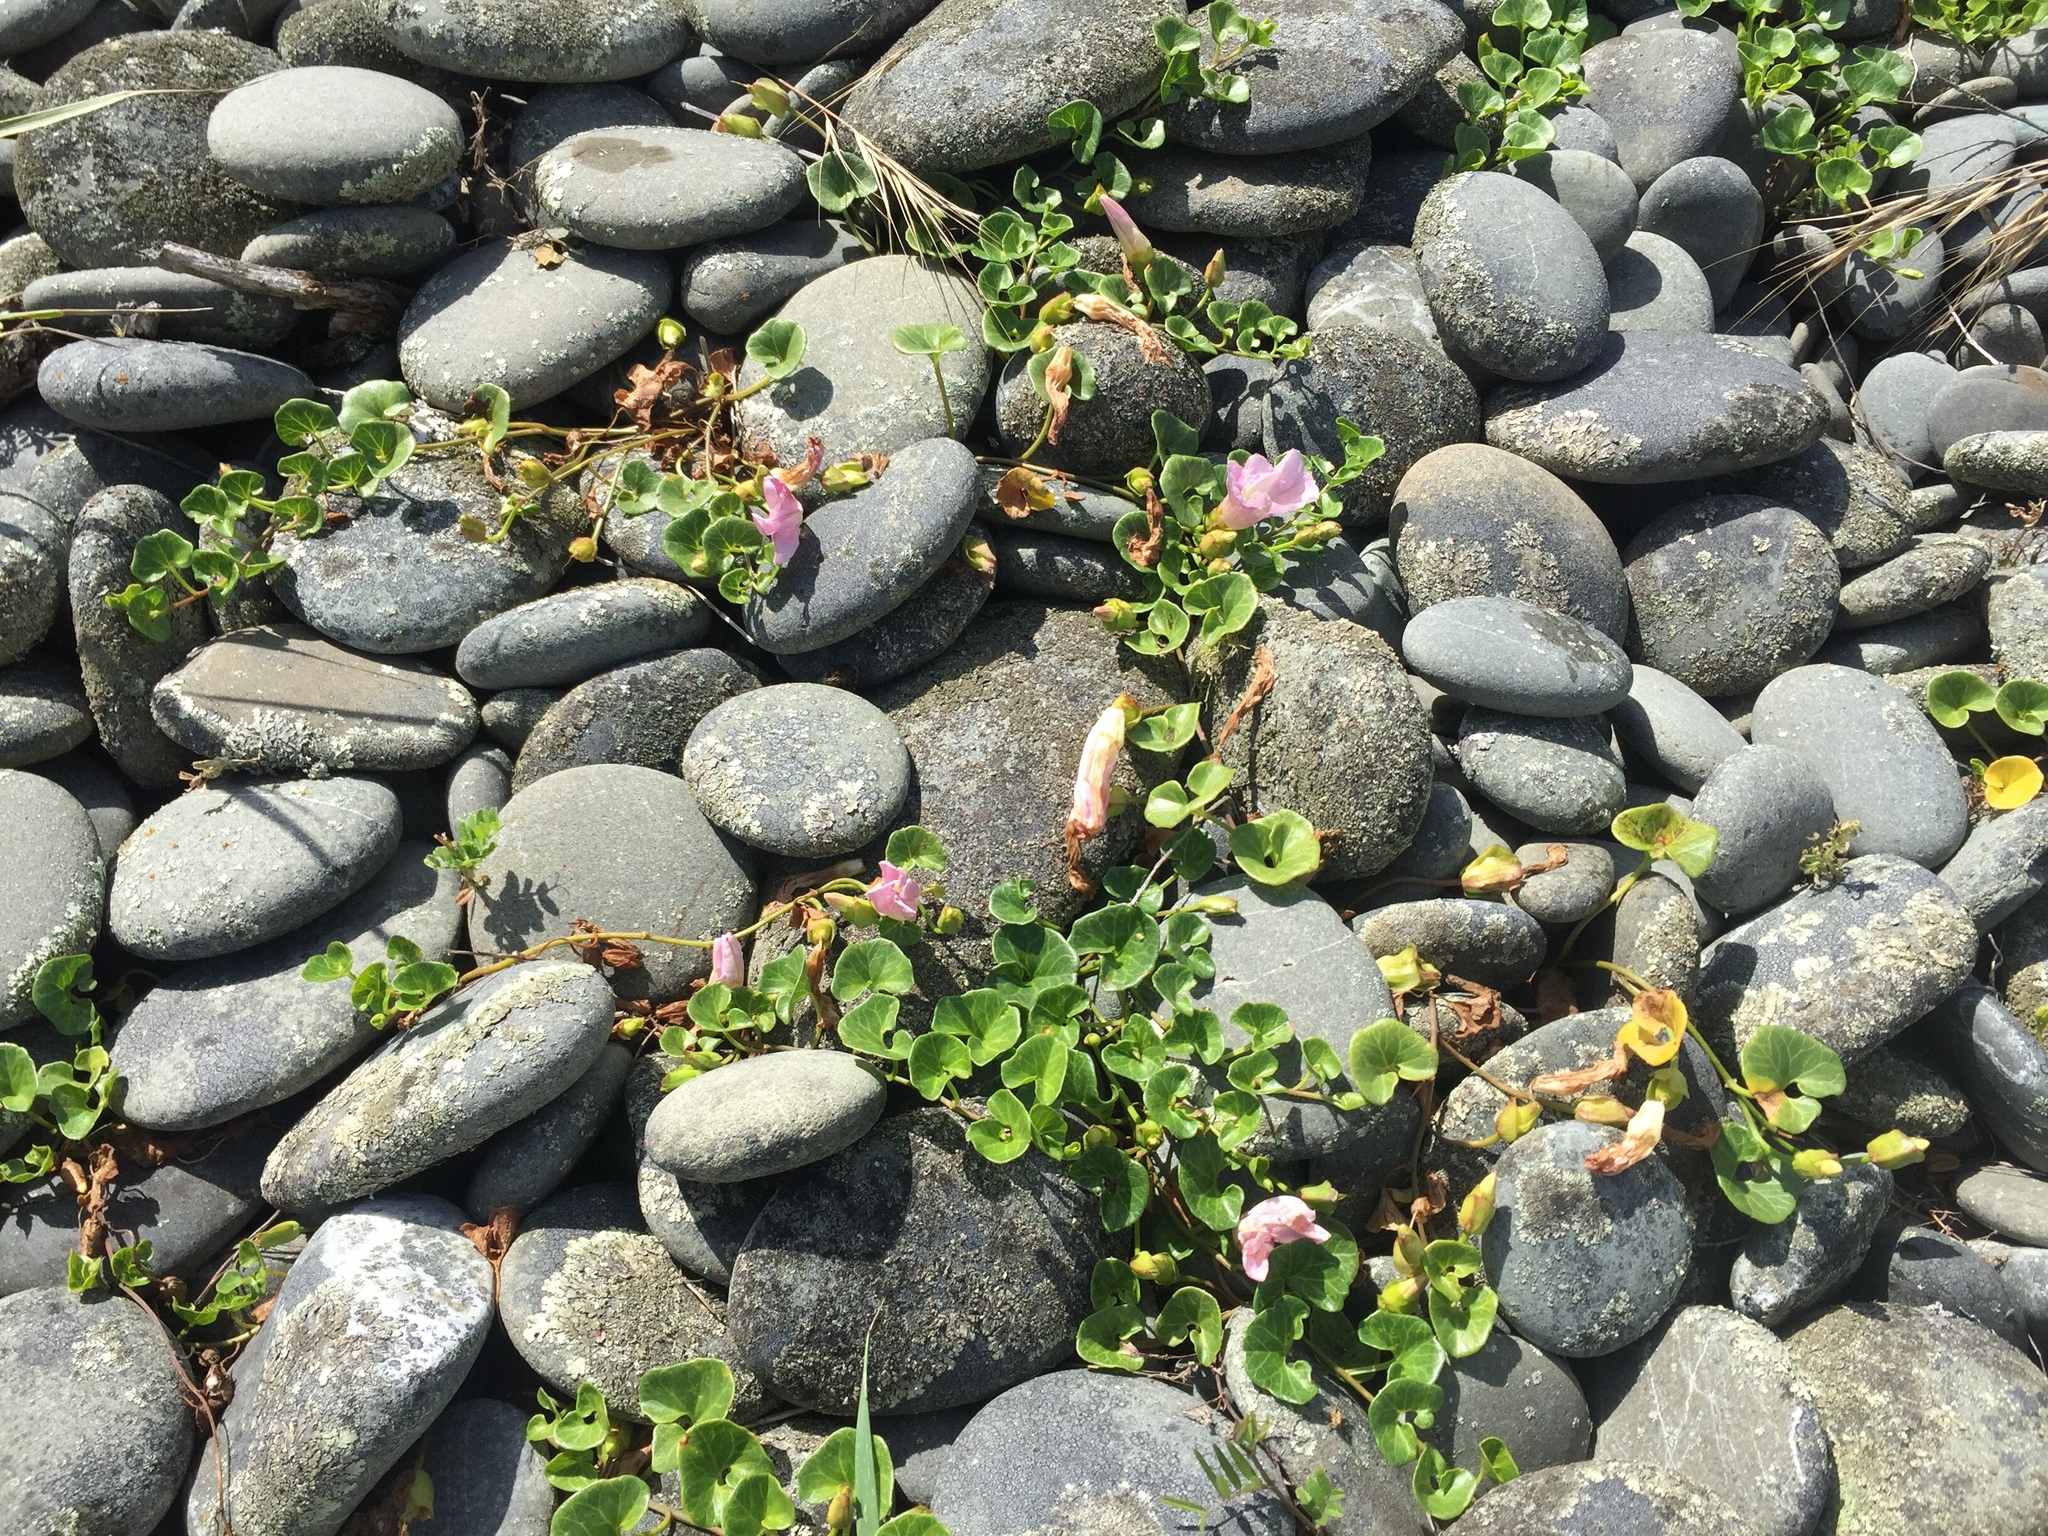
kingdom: Plantae
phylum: Tracheophyta
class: Magnoliopsida
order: Solanales
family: Convolvulaceae
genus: Calystegia
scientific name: Calystegia soldanella
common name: Sea bindweed
